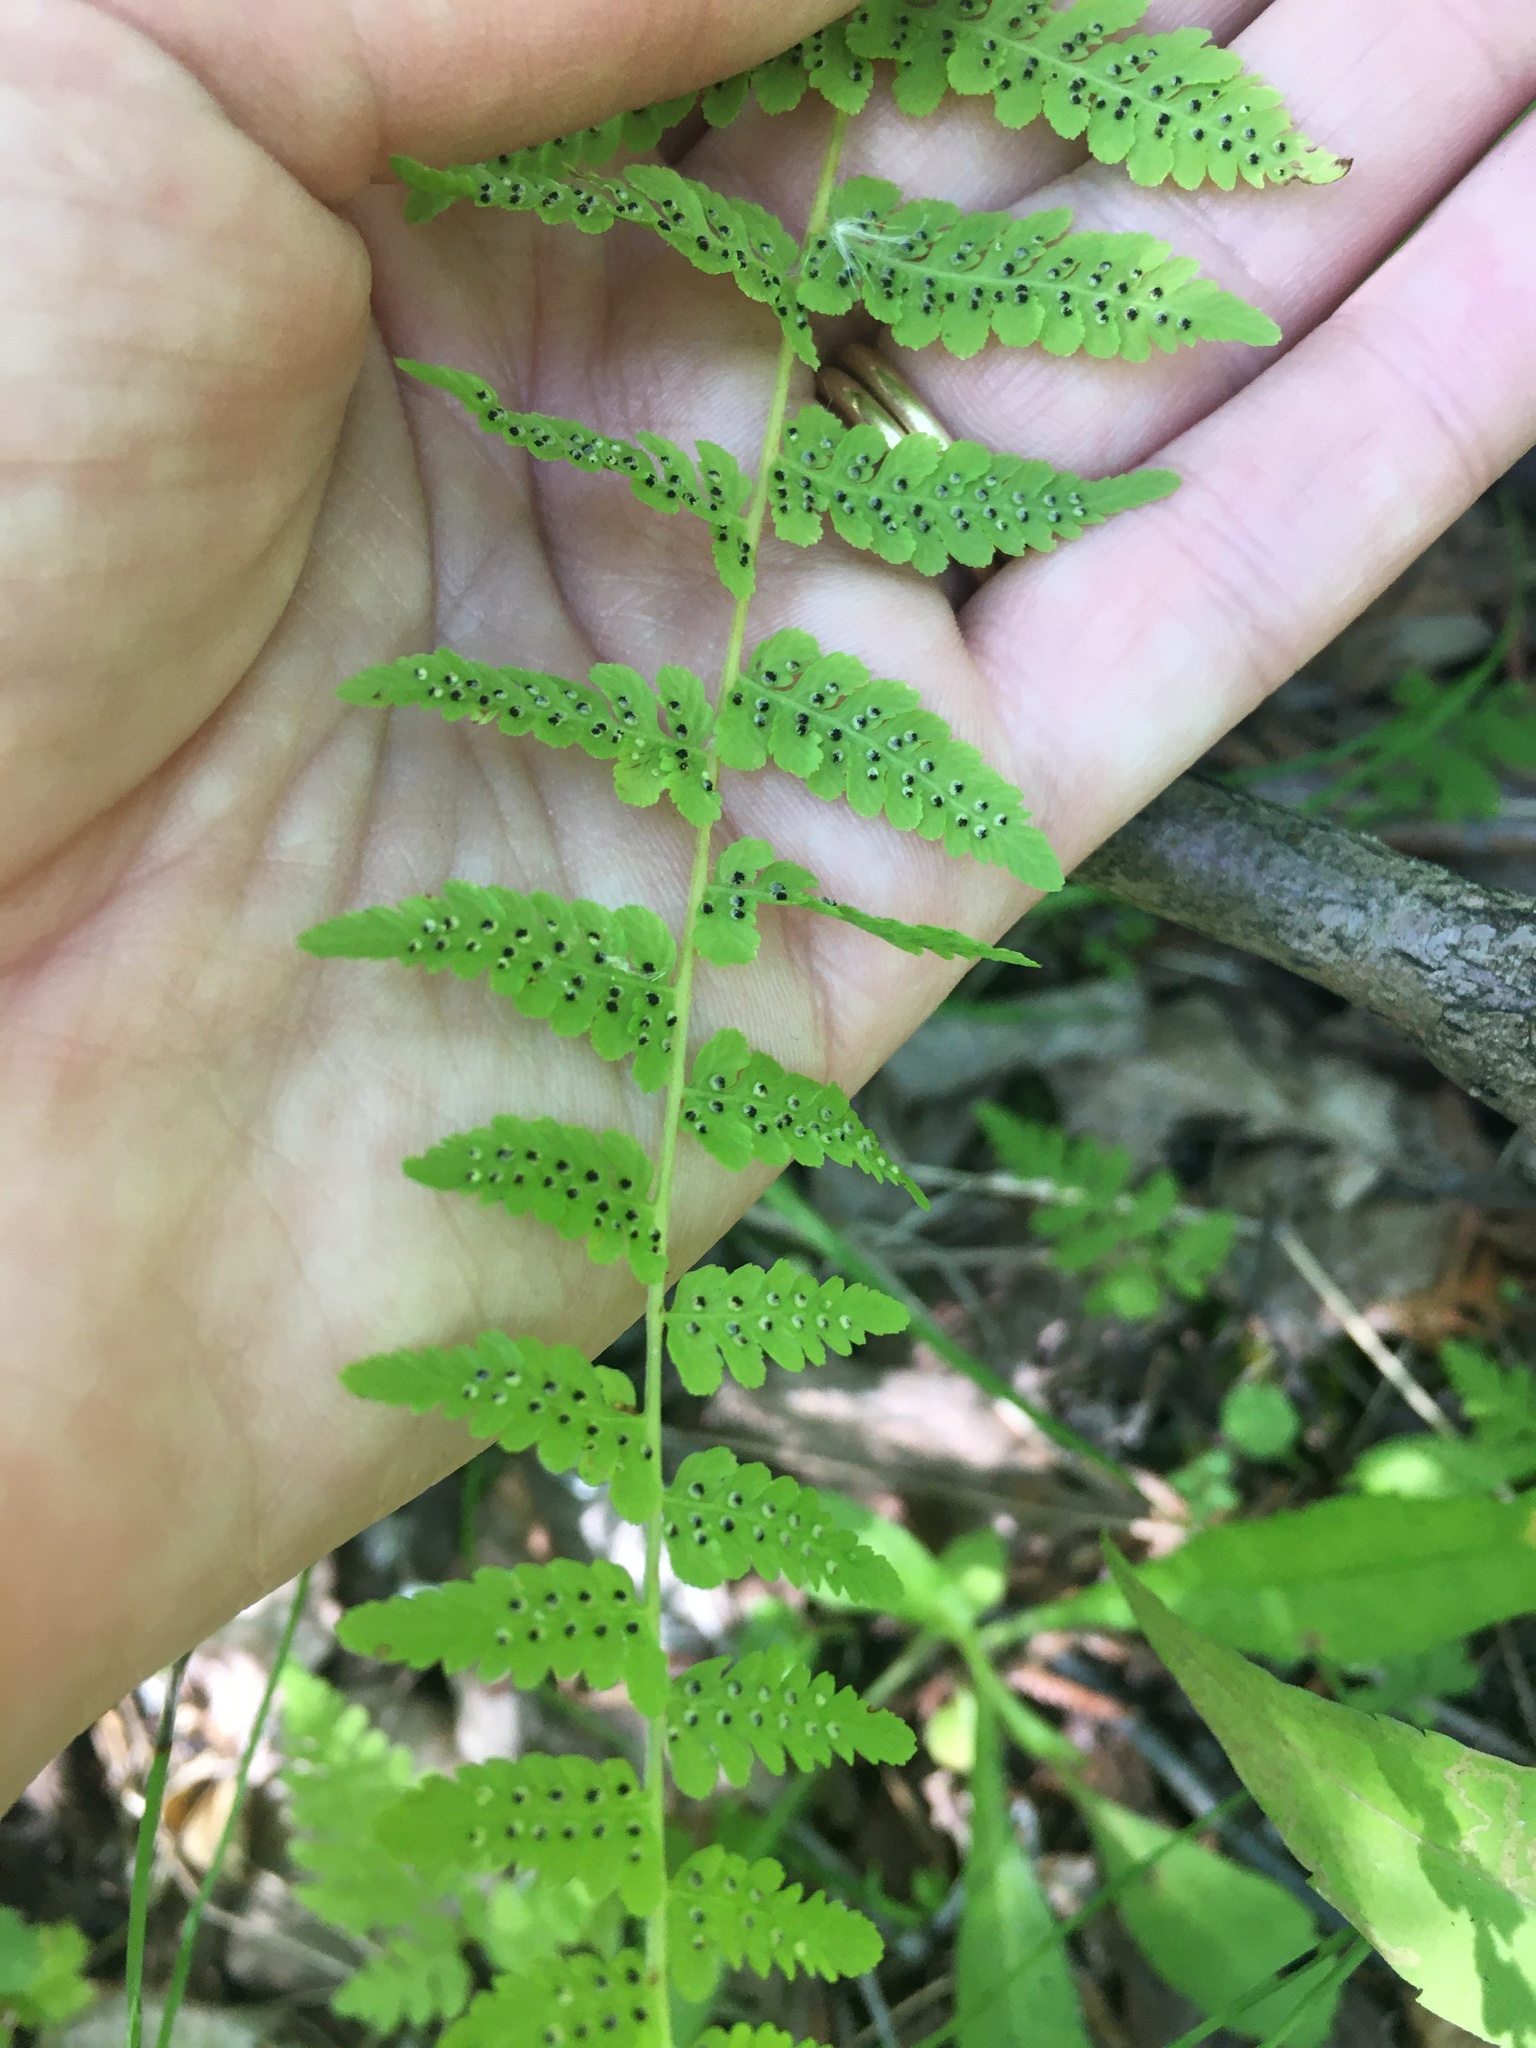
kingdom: Plantae
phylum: Tracheophyta
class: Polypodiopsida
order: Polypodiales
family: Cystopteridaceae
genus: Cystopteris
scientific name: Cystopteris bulbifera
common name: Bulblet bladder fern
